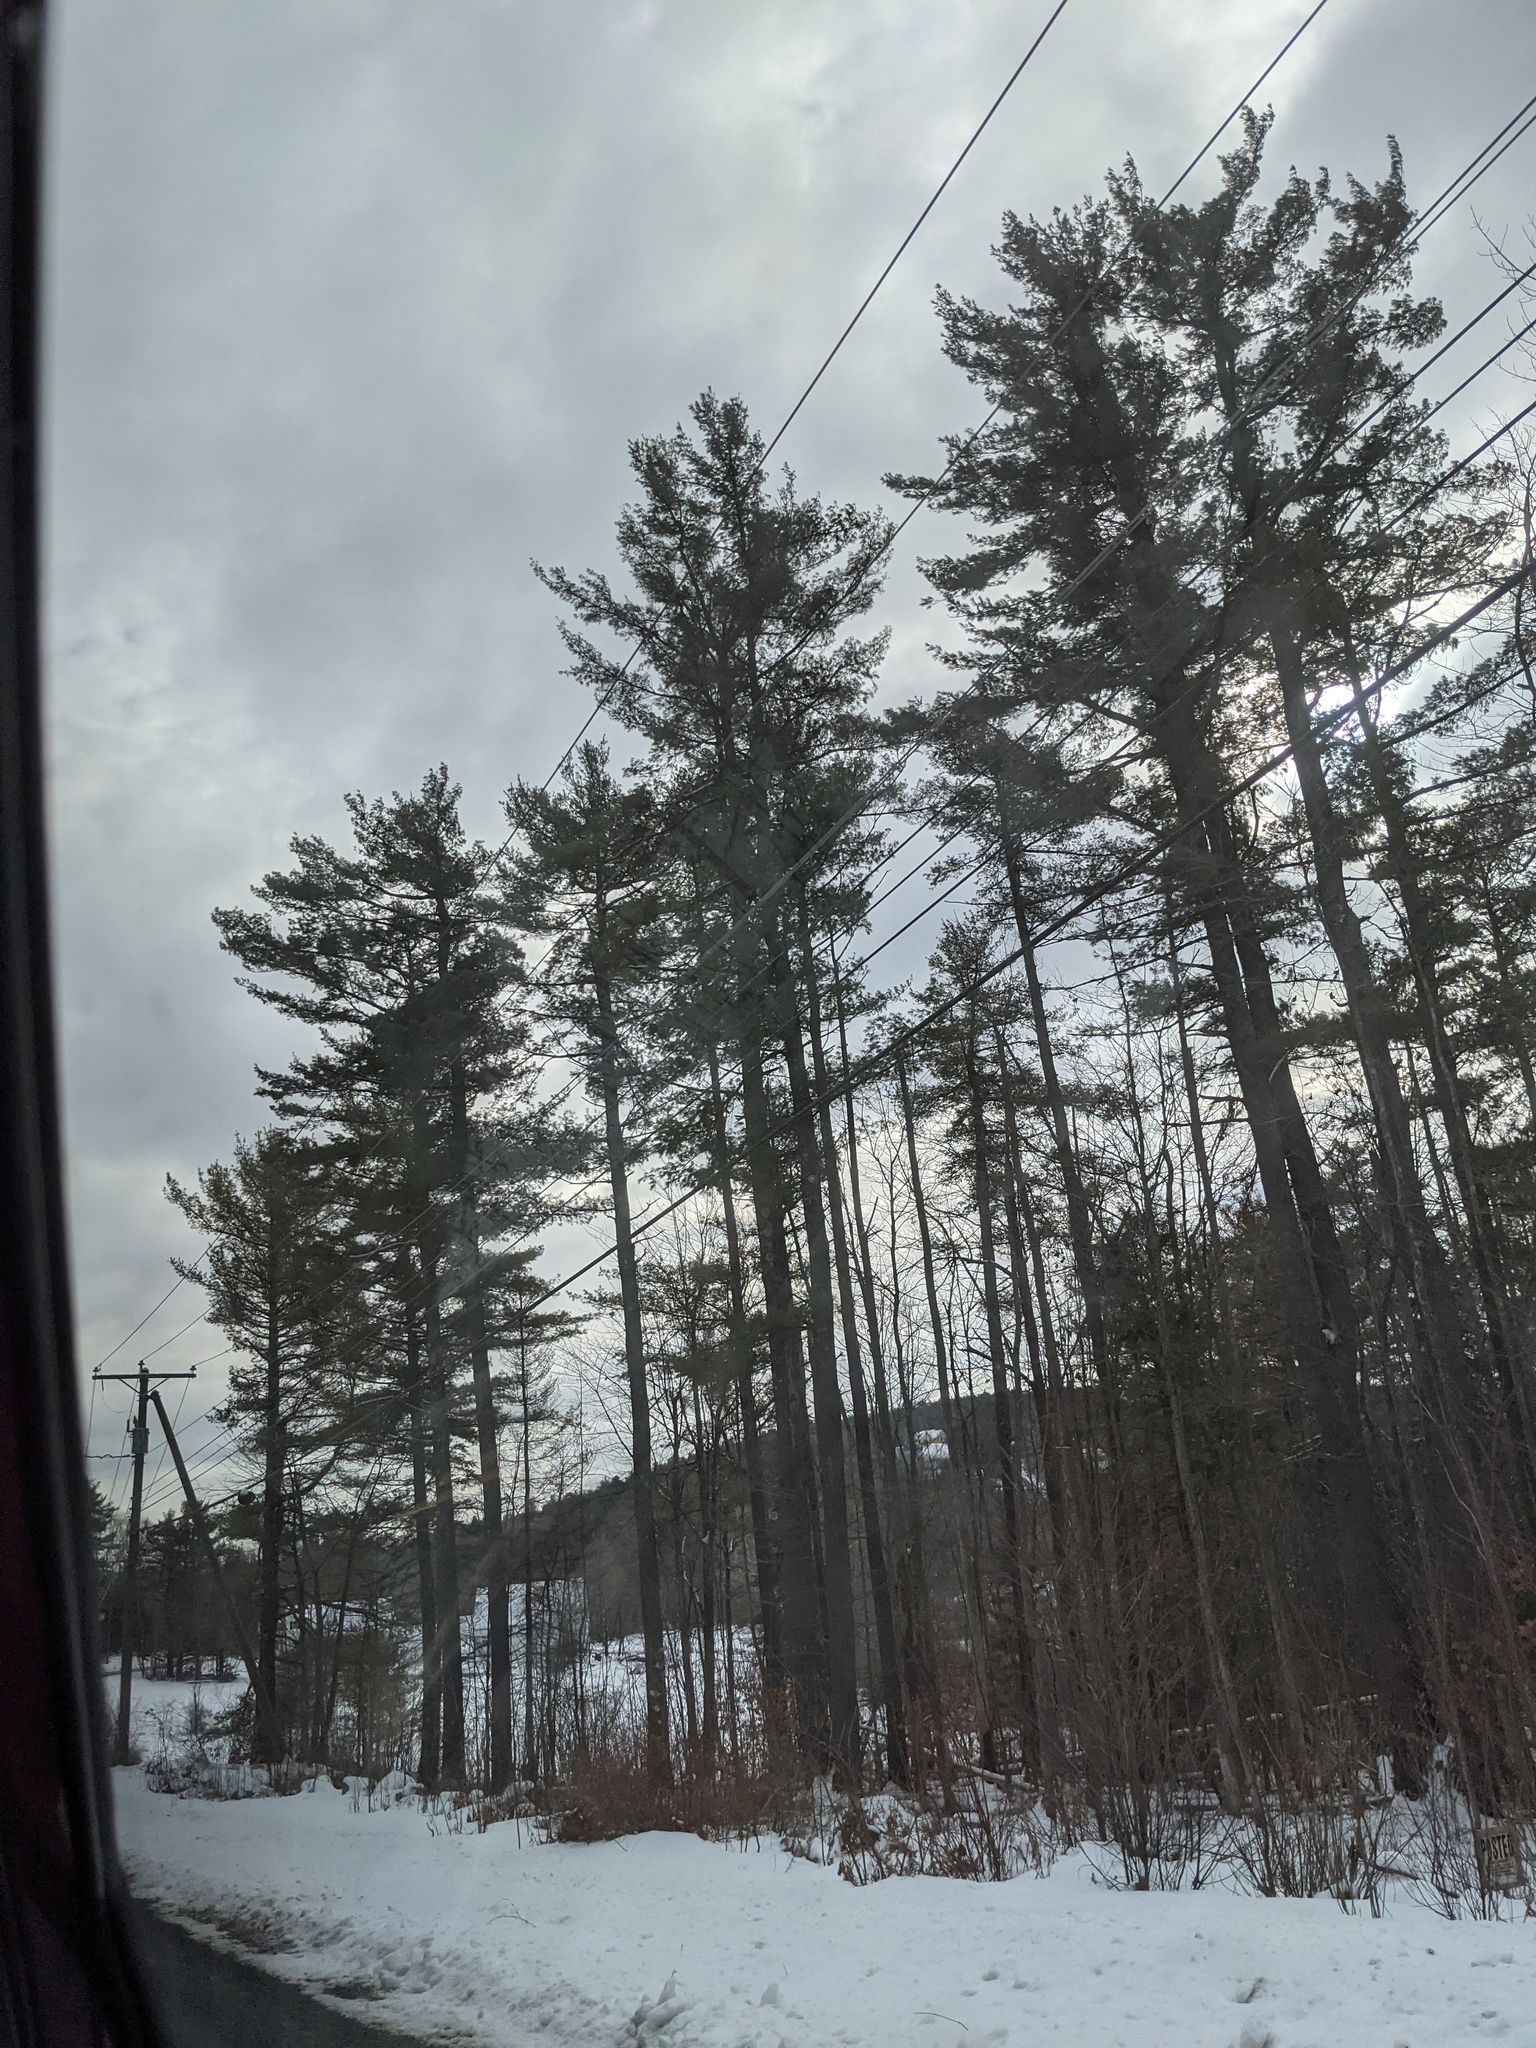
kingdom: Plantae
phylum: Tracheophyta
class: Pinopsida
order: Pinales
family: Pinaceae
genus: Pinus
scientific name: Pinus strobus
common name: Weymouth pine
